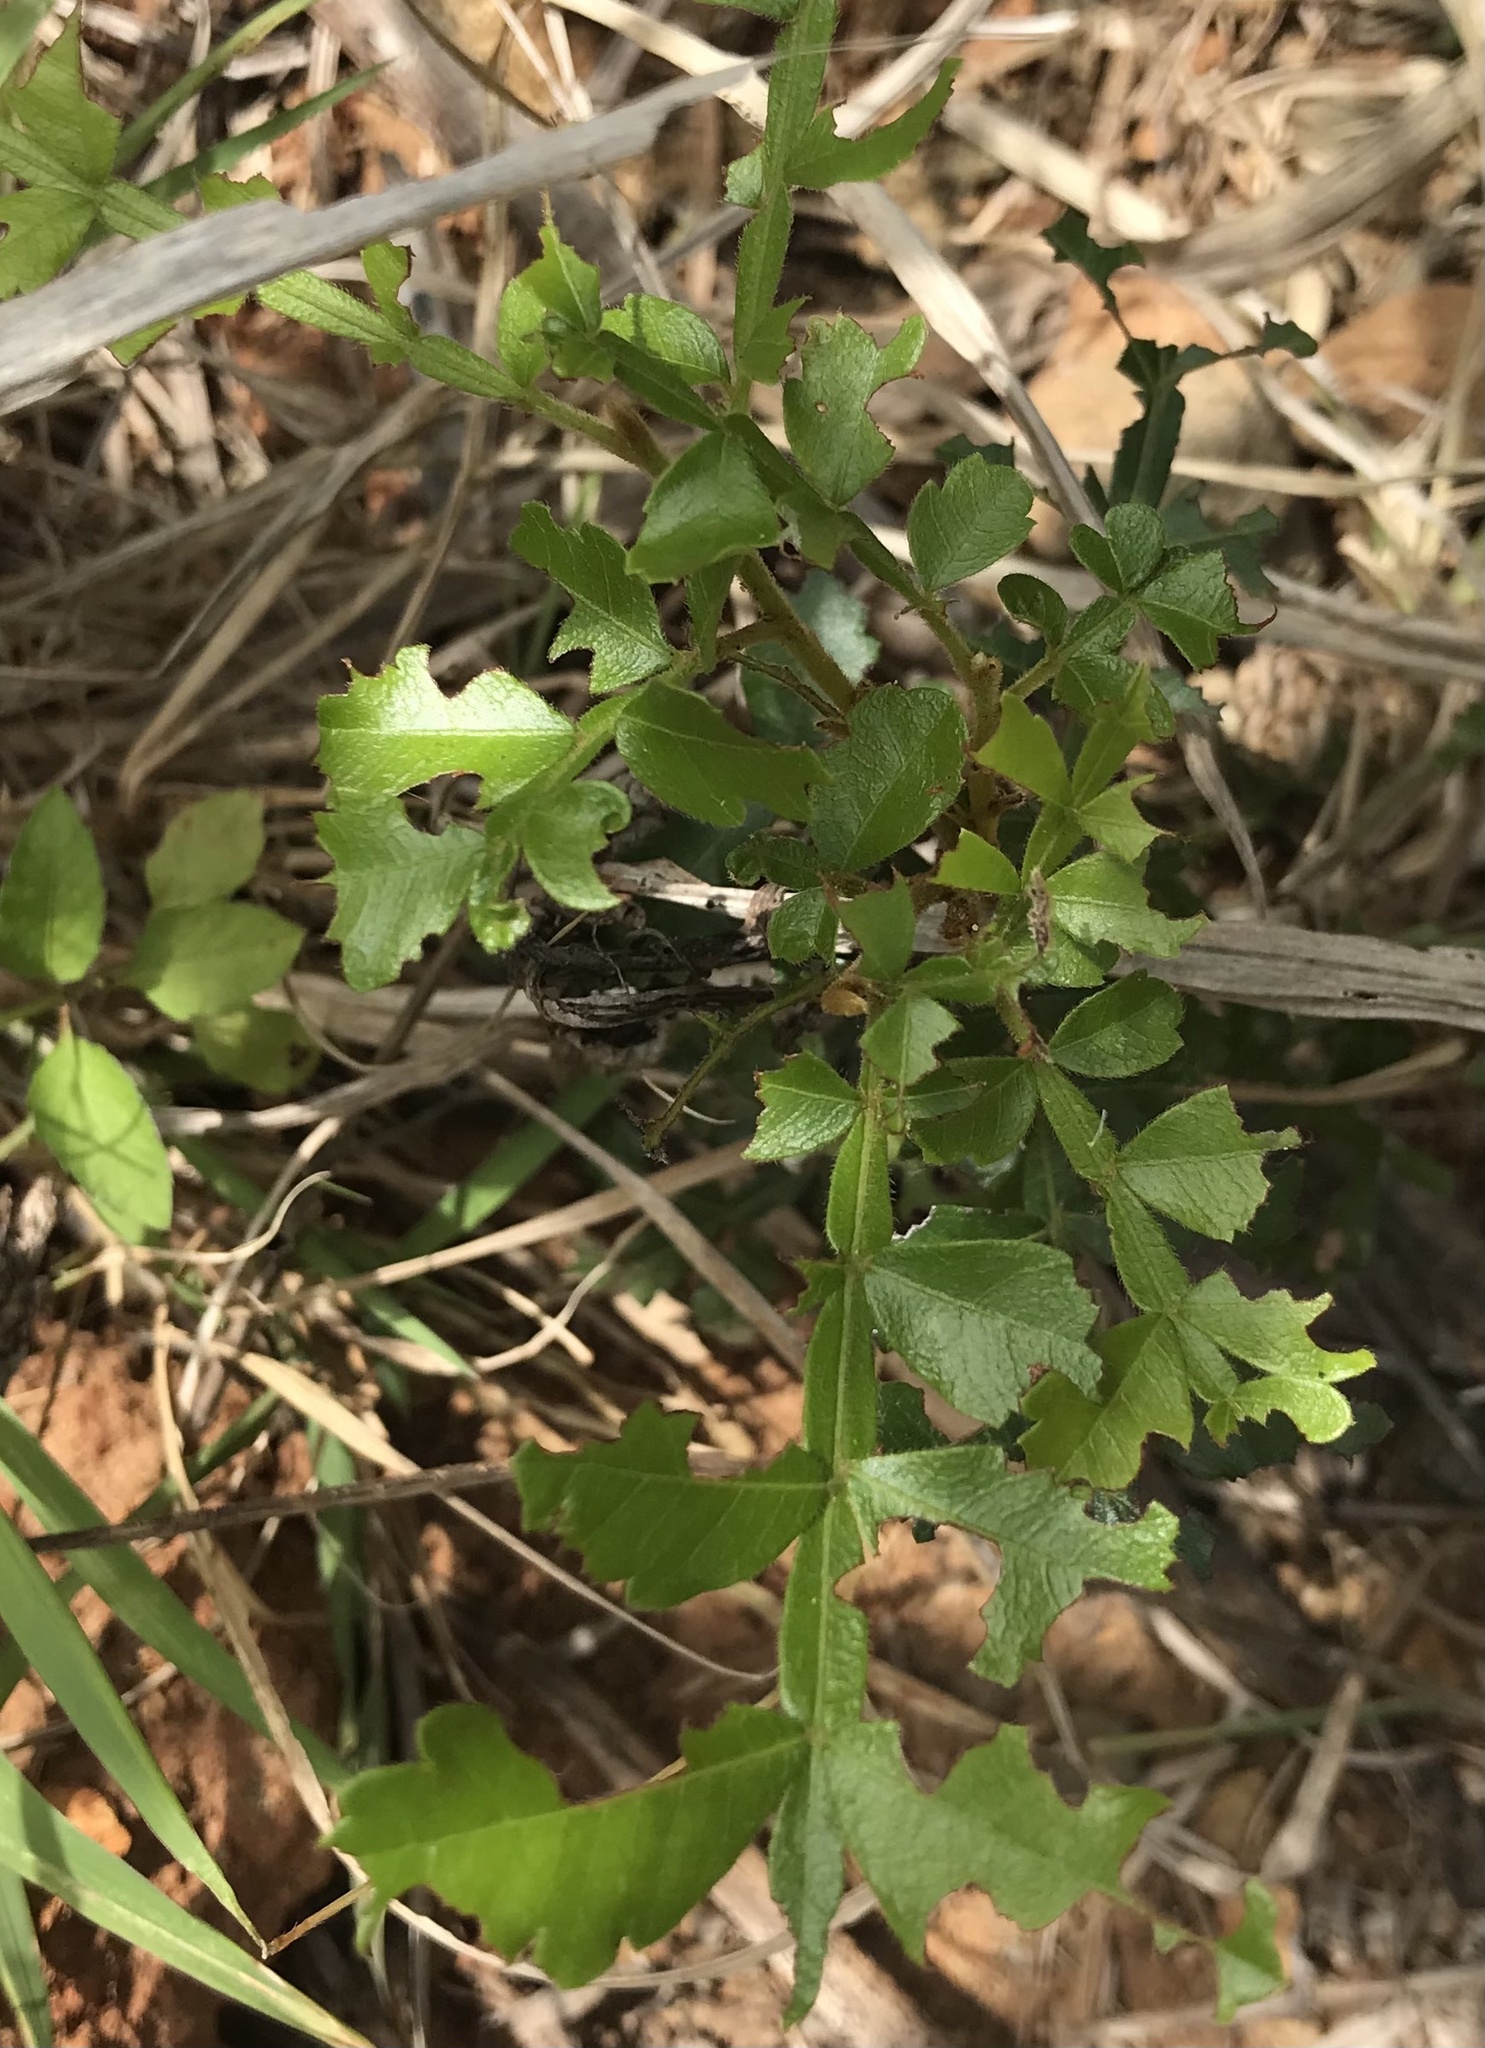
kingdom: Plantae
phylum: Tracheophyta
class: Magnoliopsida
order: Sapindales
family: Sapindaceae
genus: Hippobromus
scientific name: Hippobromus pauciflorus
